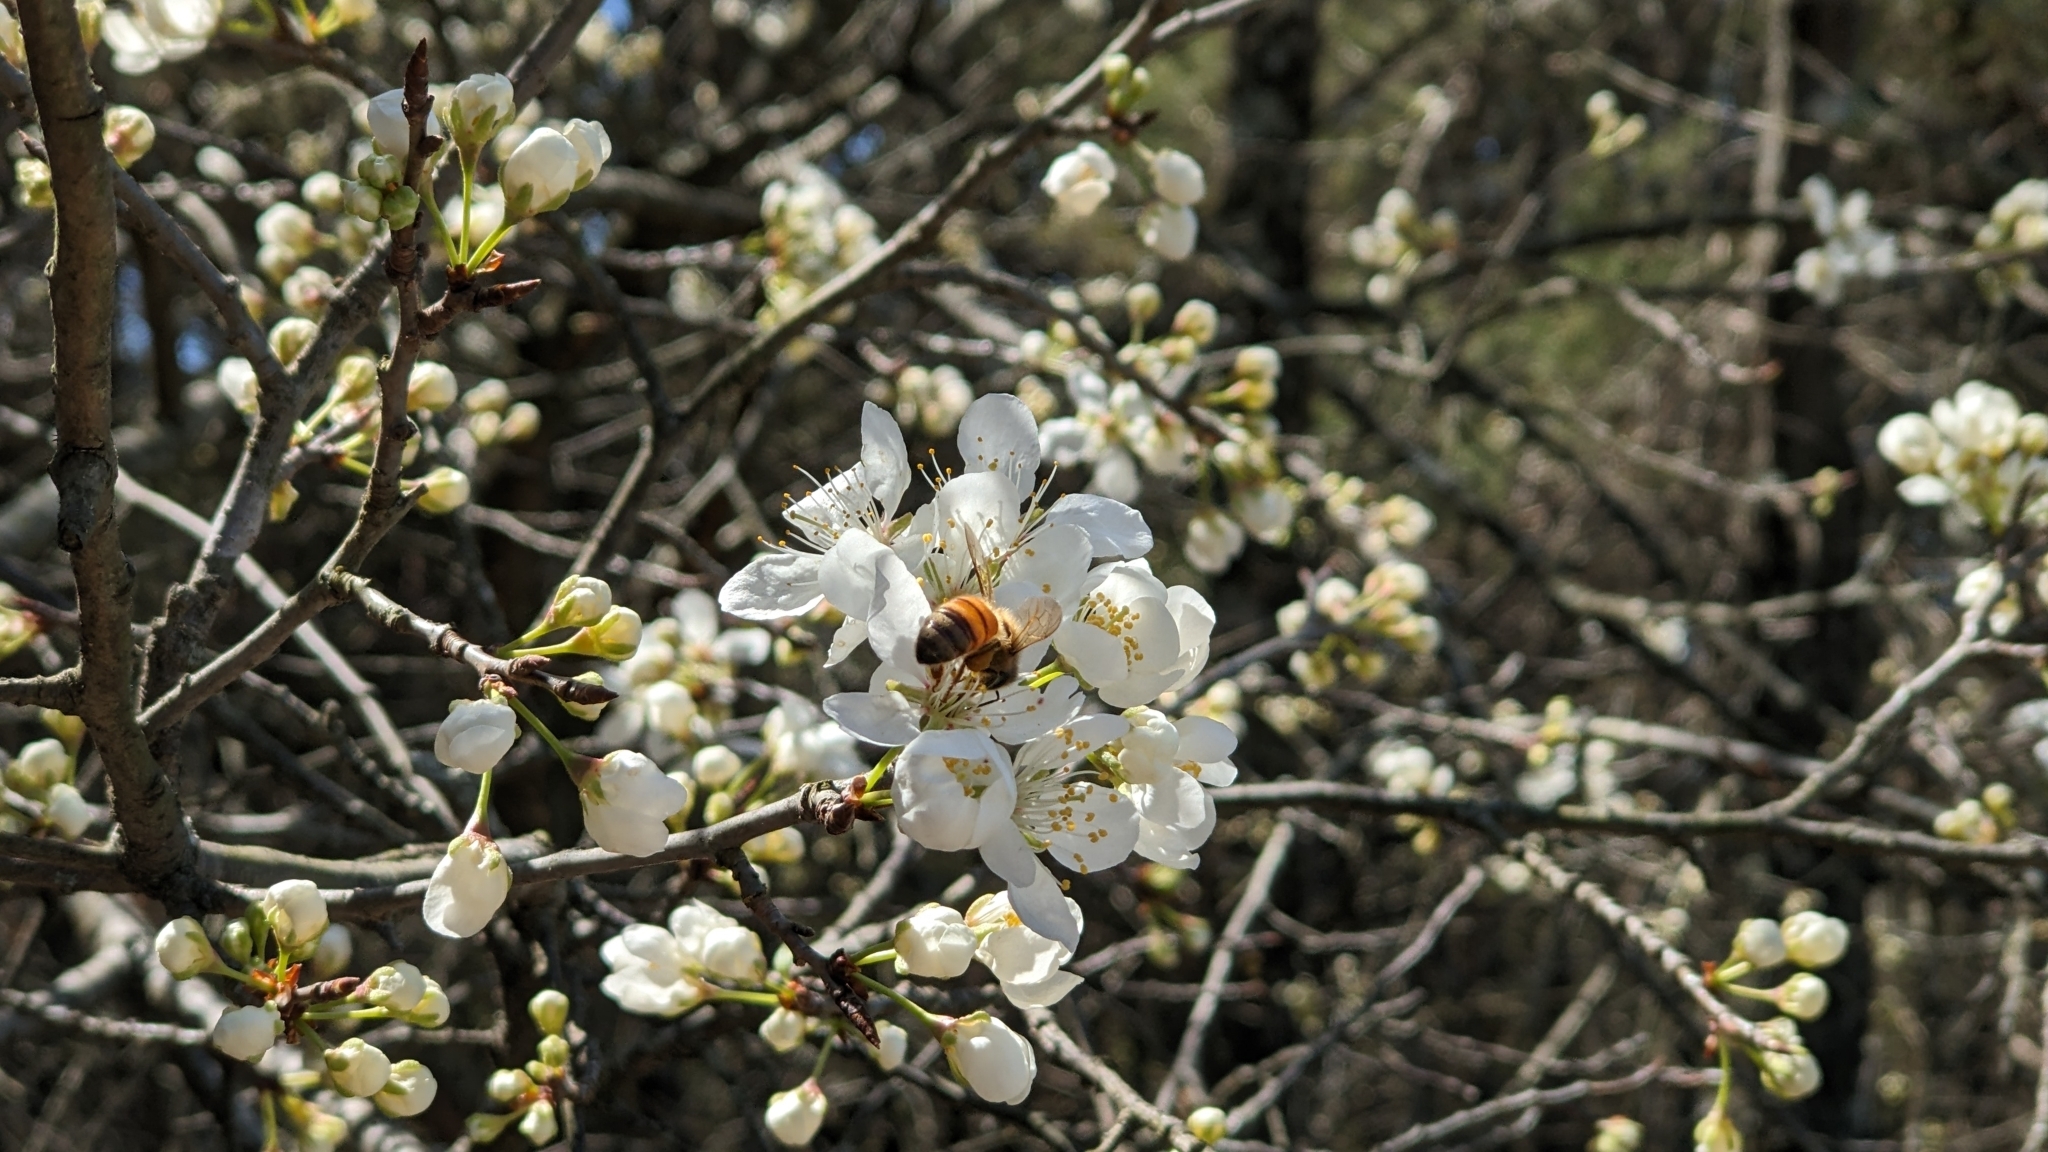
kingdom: Plantae
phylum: Tracheophyta
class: Magnoliopsida
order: Rosales
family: Rosaceae
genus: Prunus
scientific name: Prunus americana
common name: American plum
